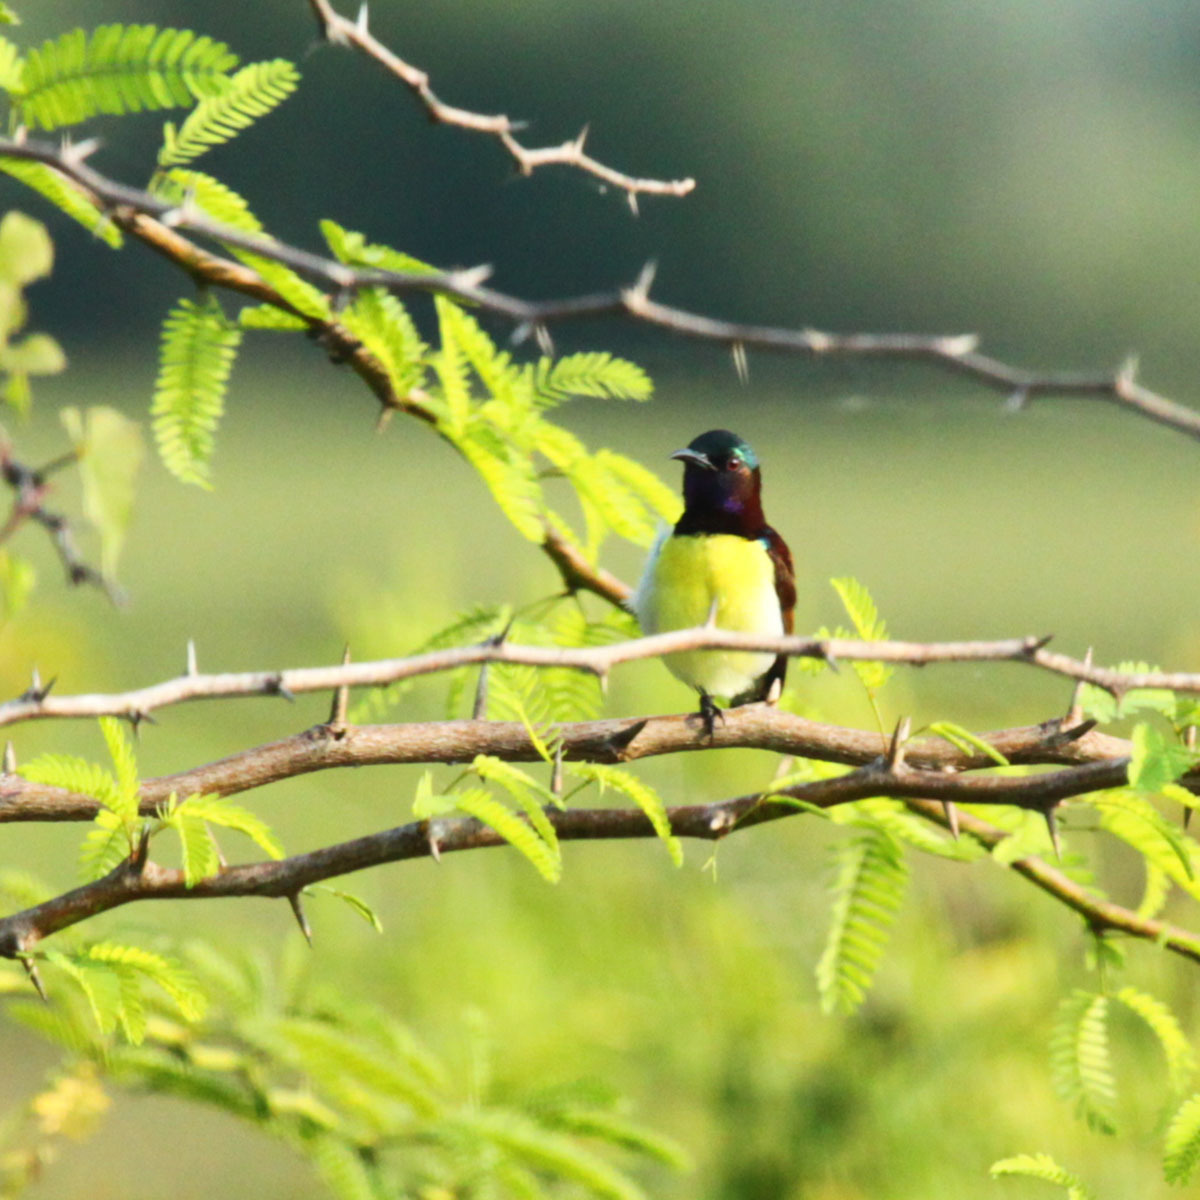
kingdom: Animalia
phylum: Chordata
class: Aves
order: Passeriformes
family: Nectariniidae
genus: Leptocoma
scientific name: Leptocoma zeylonica
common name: Purple-rumped sunbird
